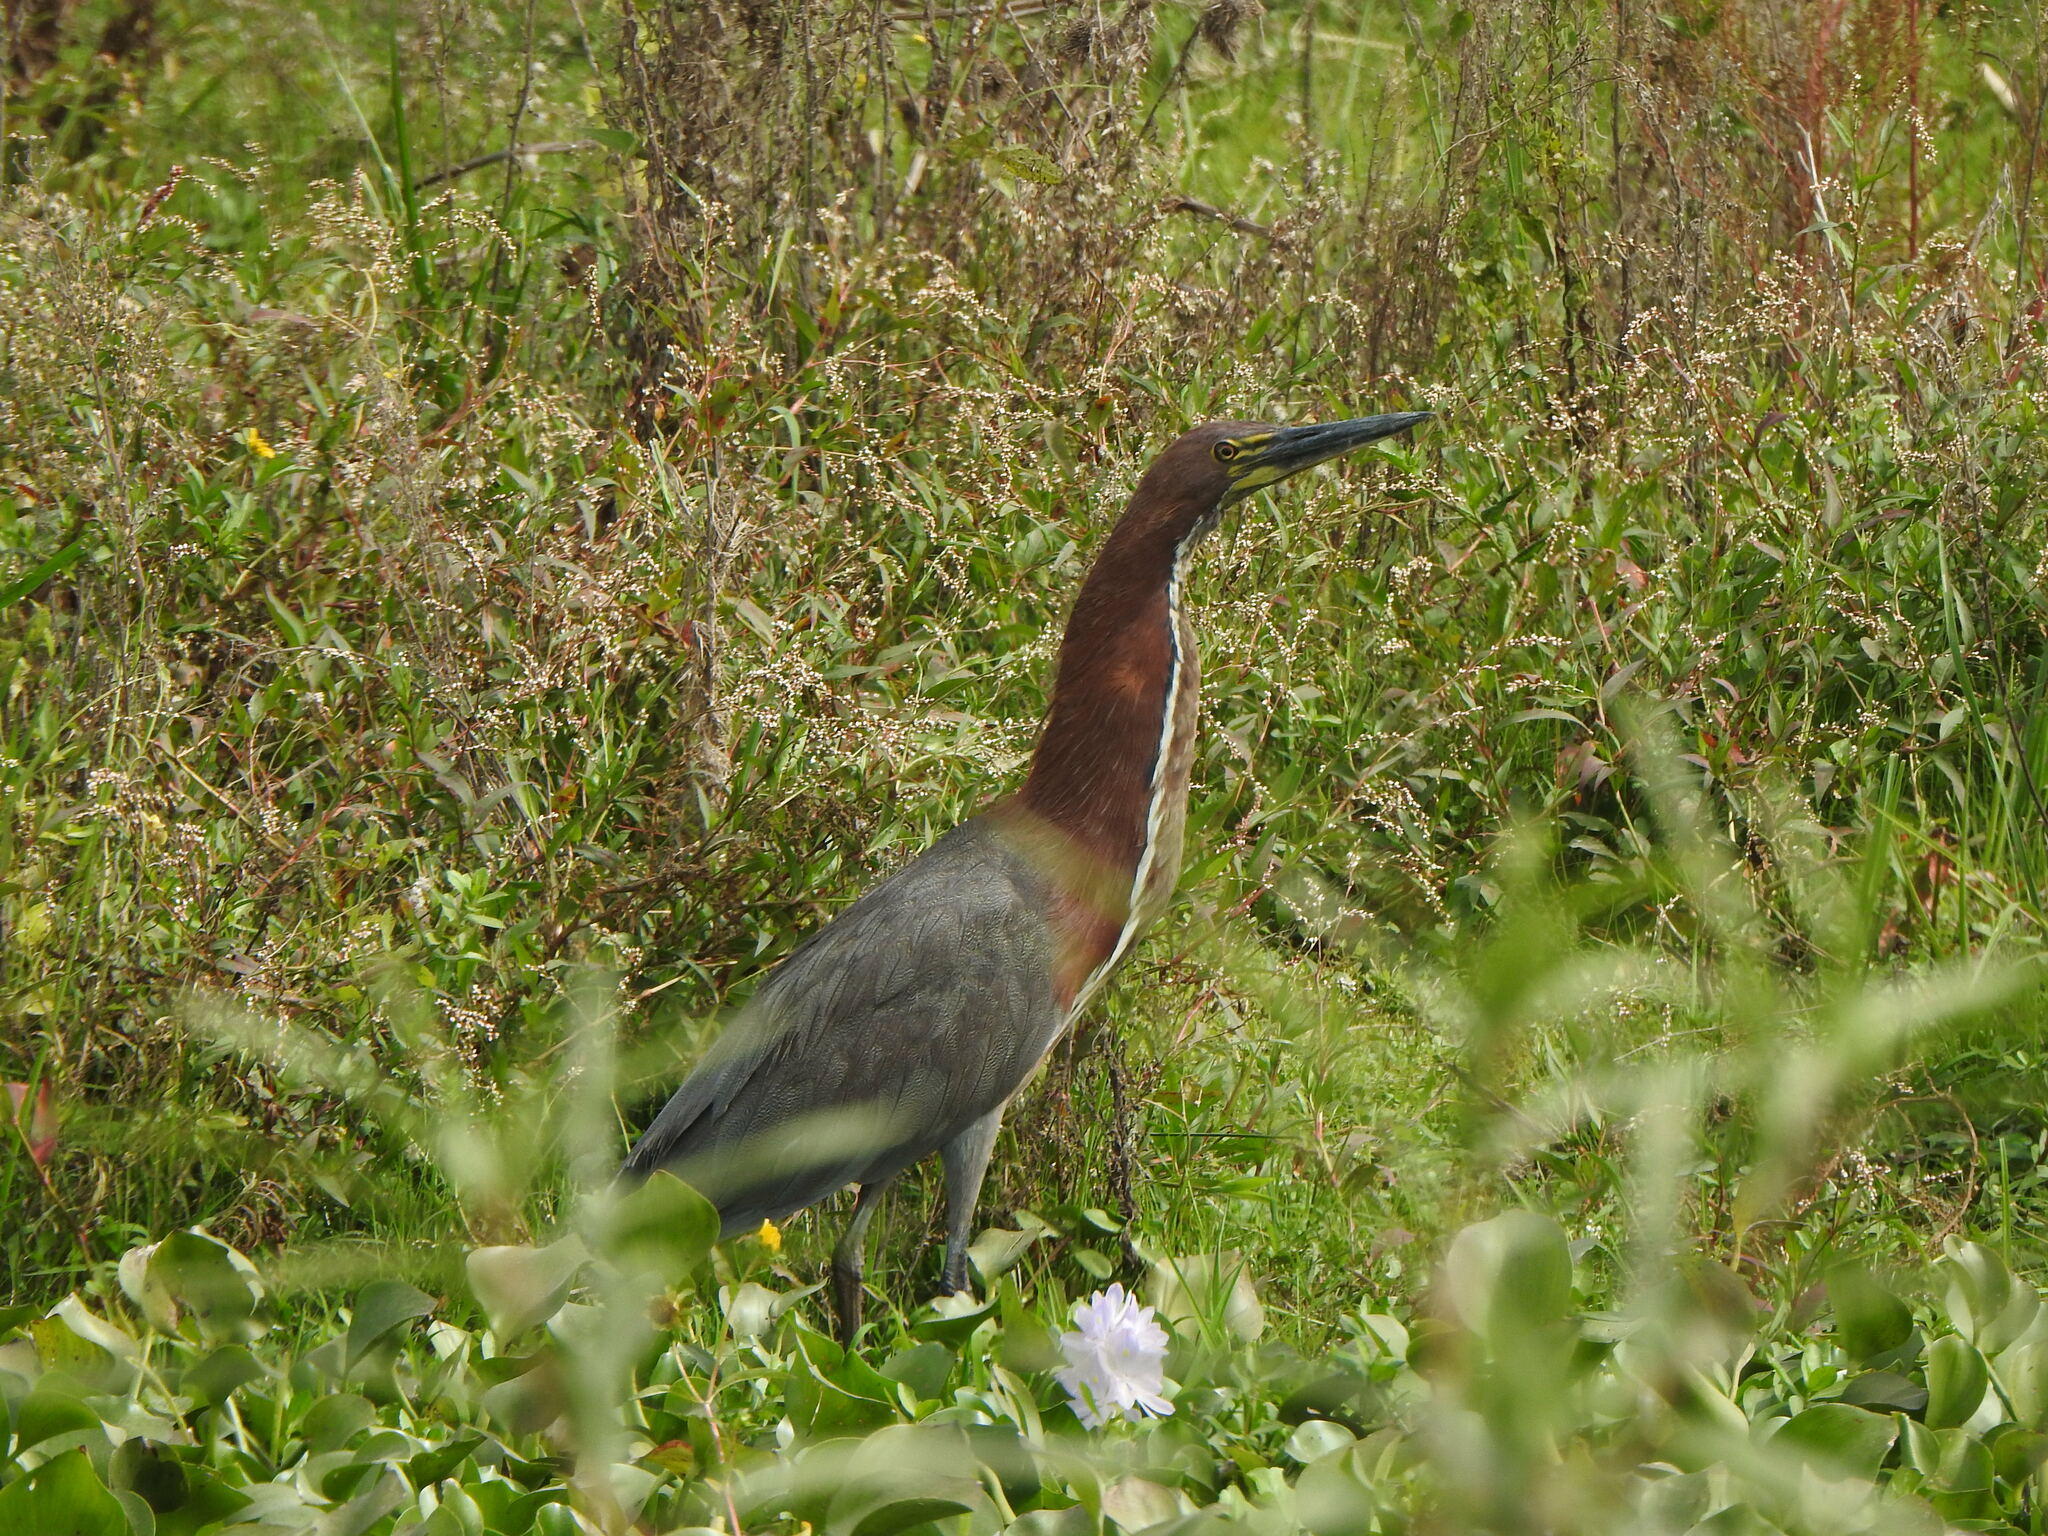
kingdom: Animalia
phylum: Chordata
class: Aves
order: Pelecaniformes
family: Ardeidae
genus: Tigrisoma
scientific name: Tigrisoma lineatum
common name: Rufescent tiger-heron
